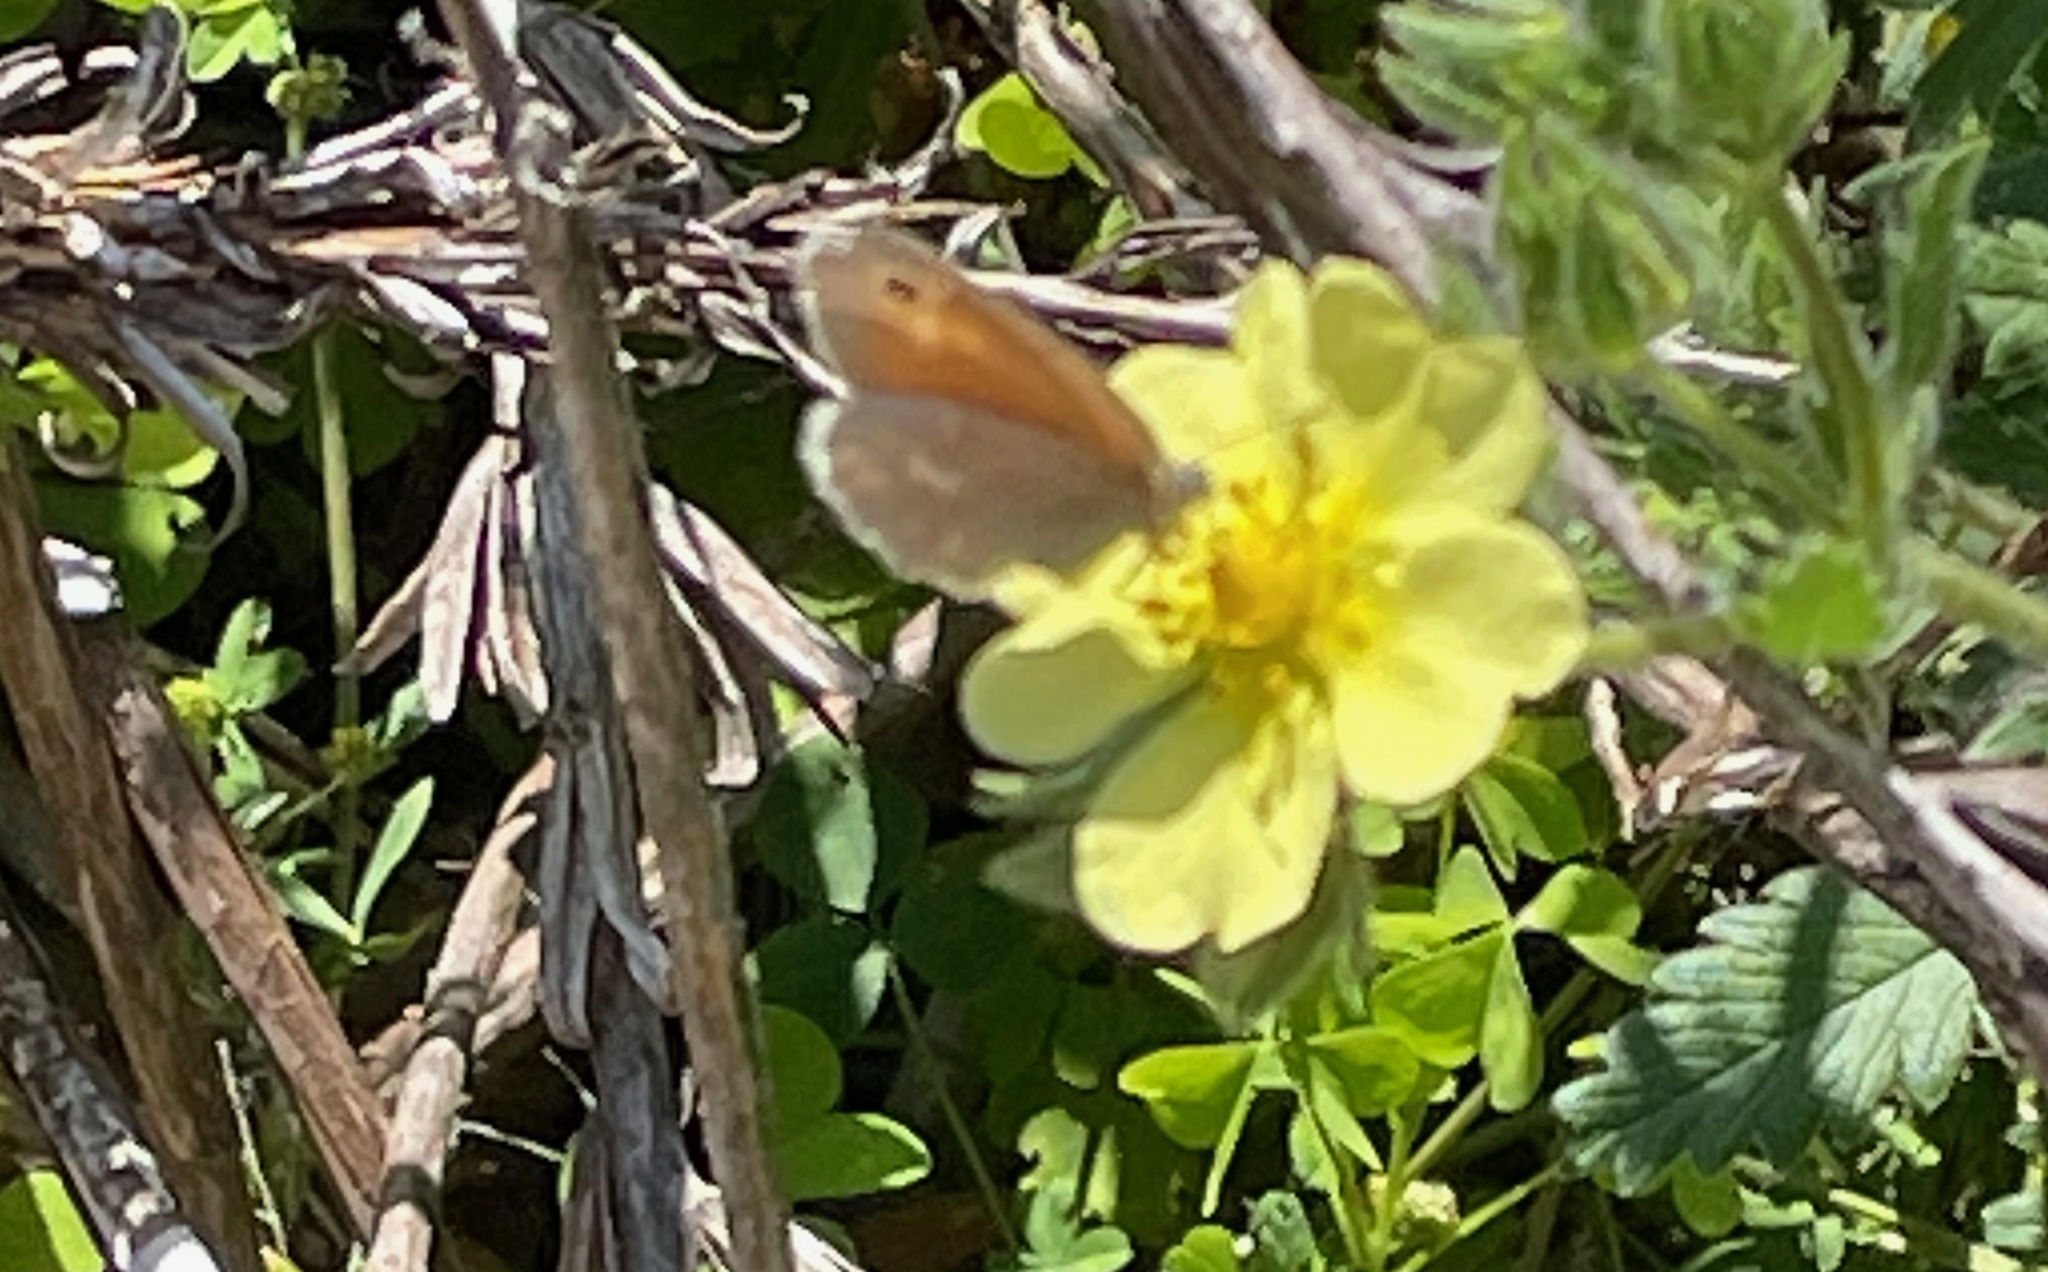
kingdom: Animalia
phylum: Arthropoda
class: Insecta
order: Lepidoptera
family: Nymphalidae
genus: Coenonympha
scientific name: Coenonympha california
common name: Common ringlet
